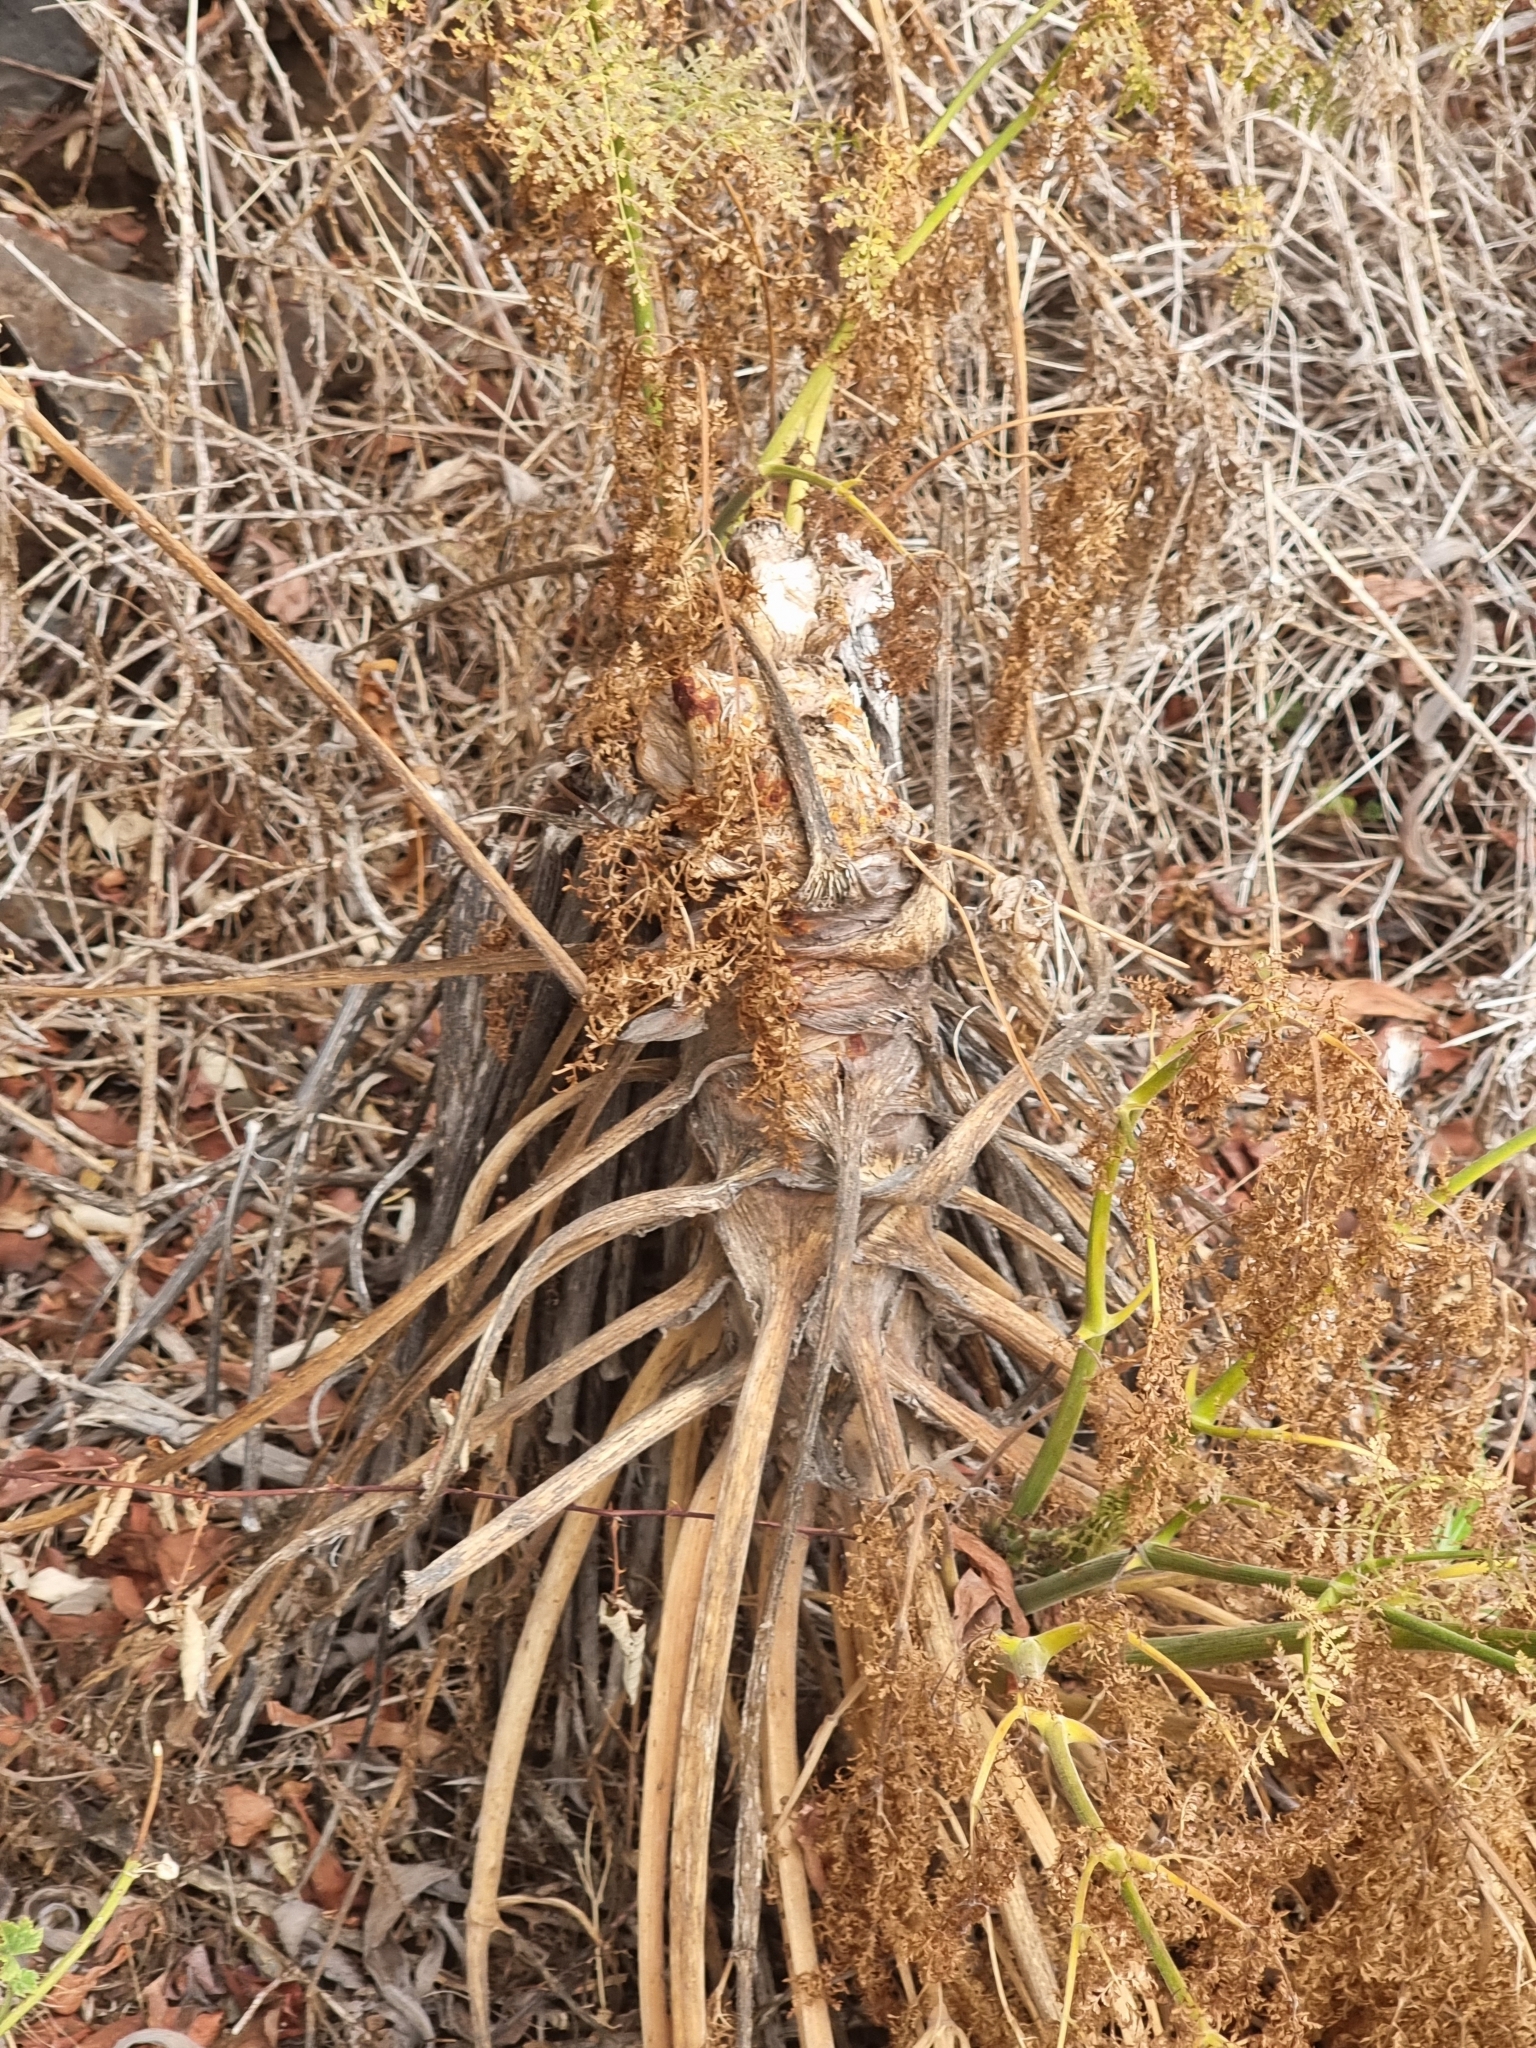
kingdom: Plantae
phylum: Tracheophyta
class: Magnoliopsida
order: Apiales
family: Apiaceae
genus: Daucus
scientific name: Daucus edulis
